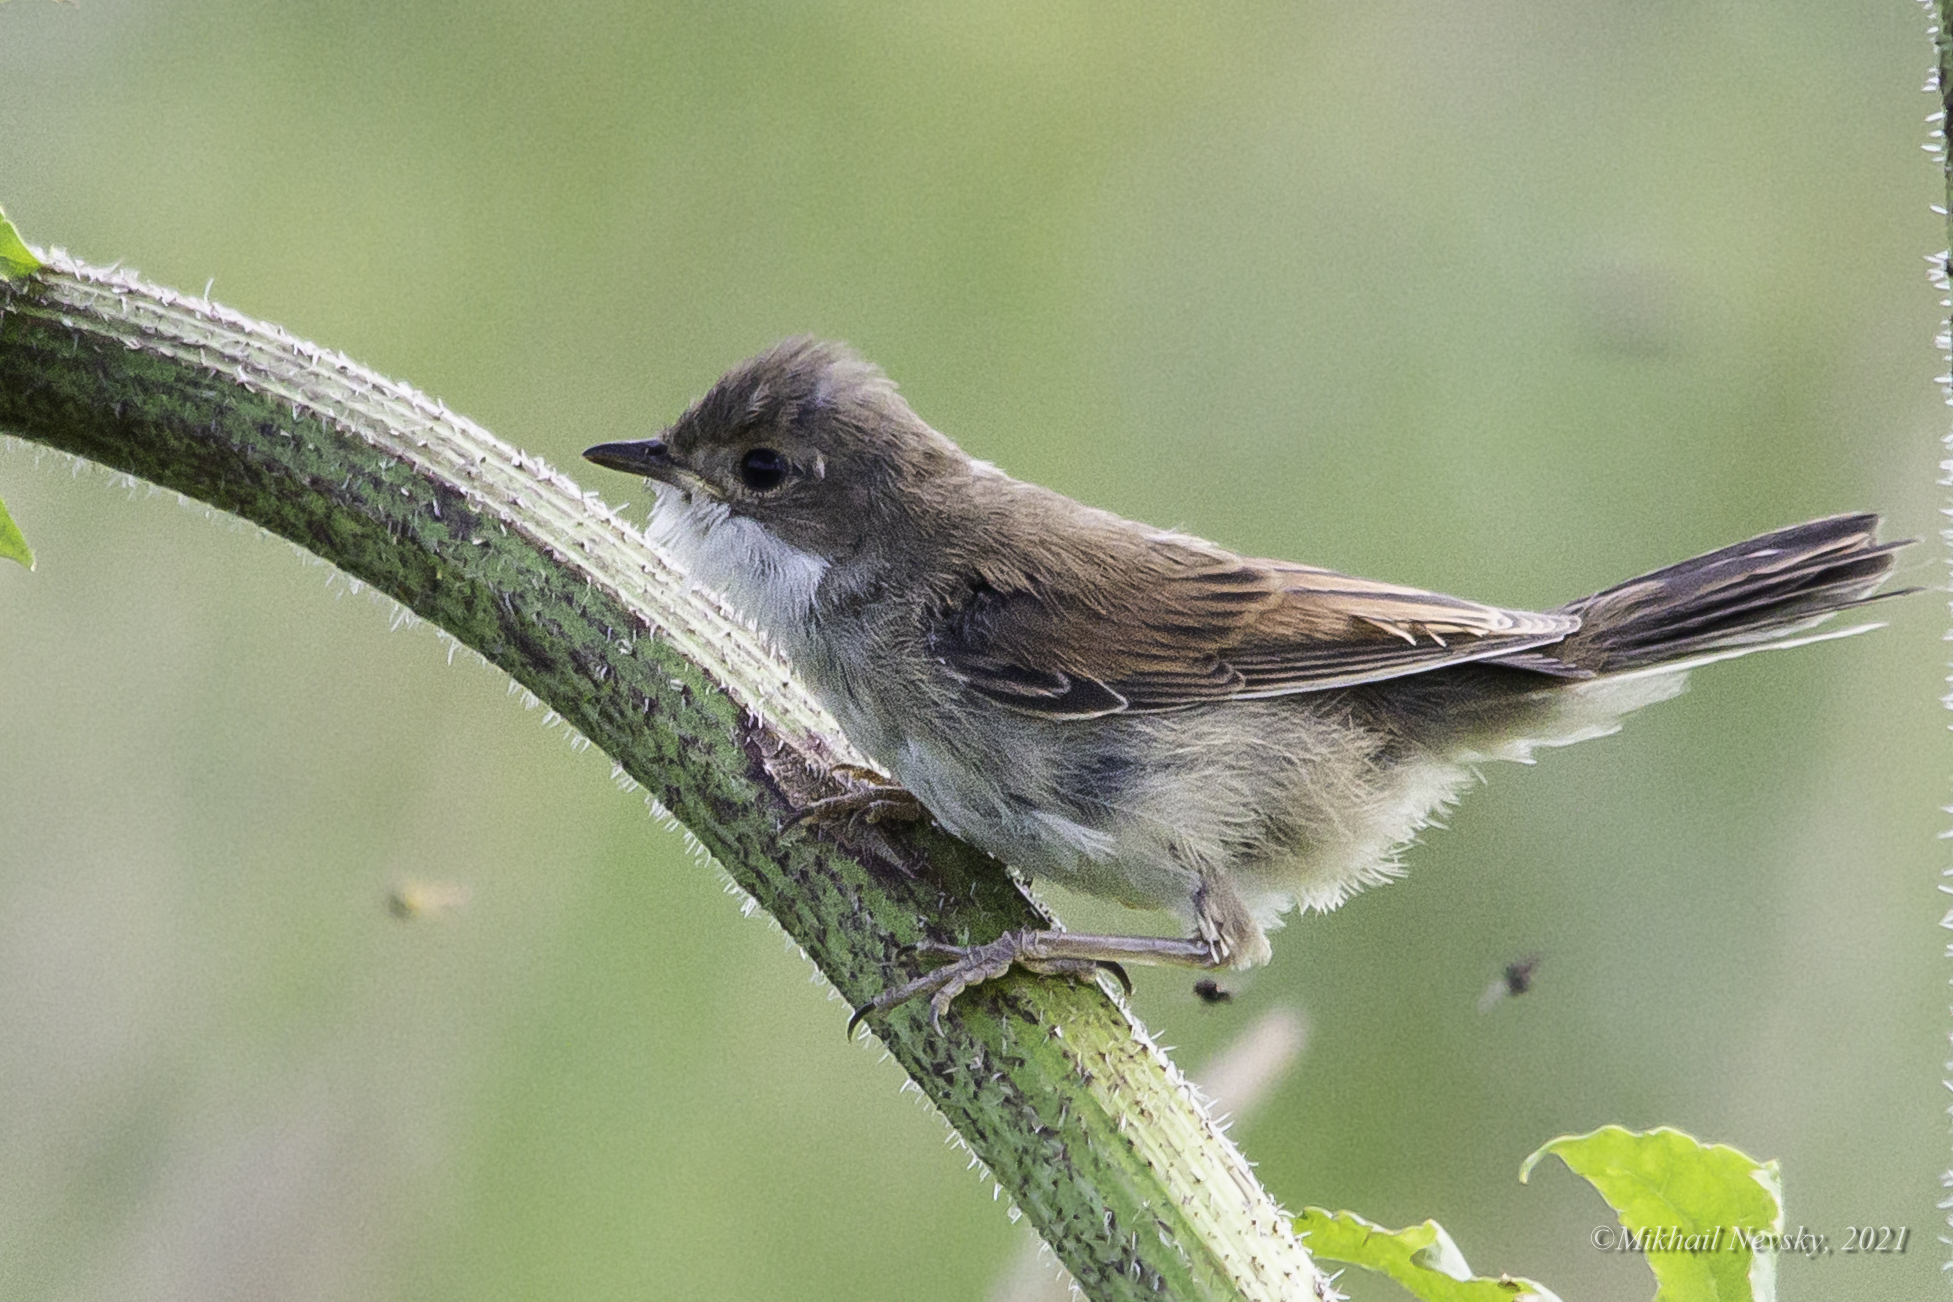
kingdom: Animalia
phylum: Chordata
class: Aves
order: Passeriformes
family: Sylviidae
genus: Sylvia
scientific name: Sylvia communis
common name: Common whitethroat
